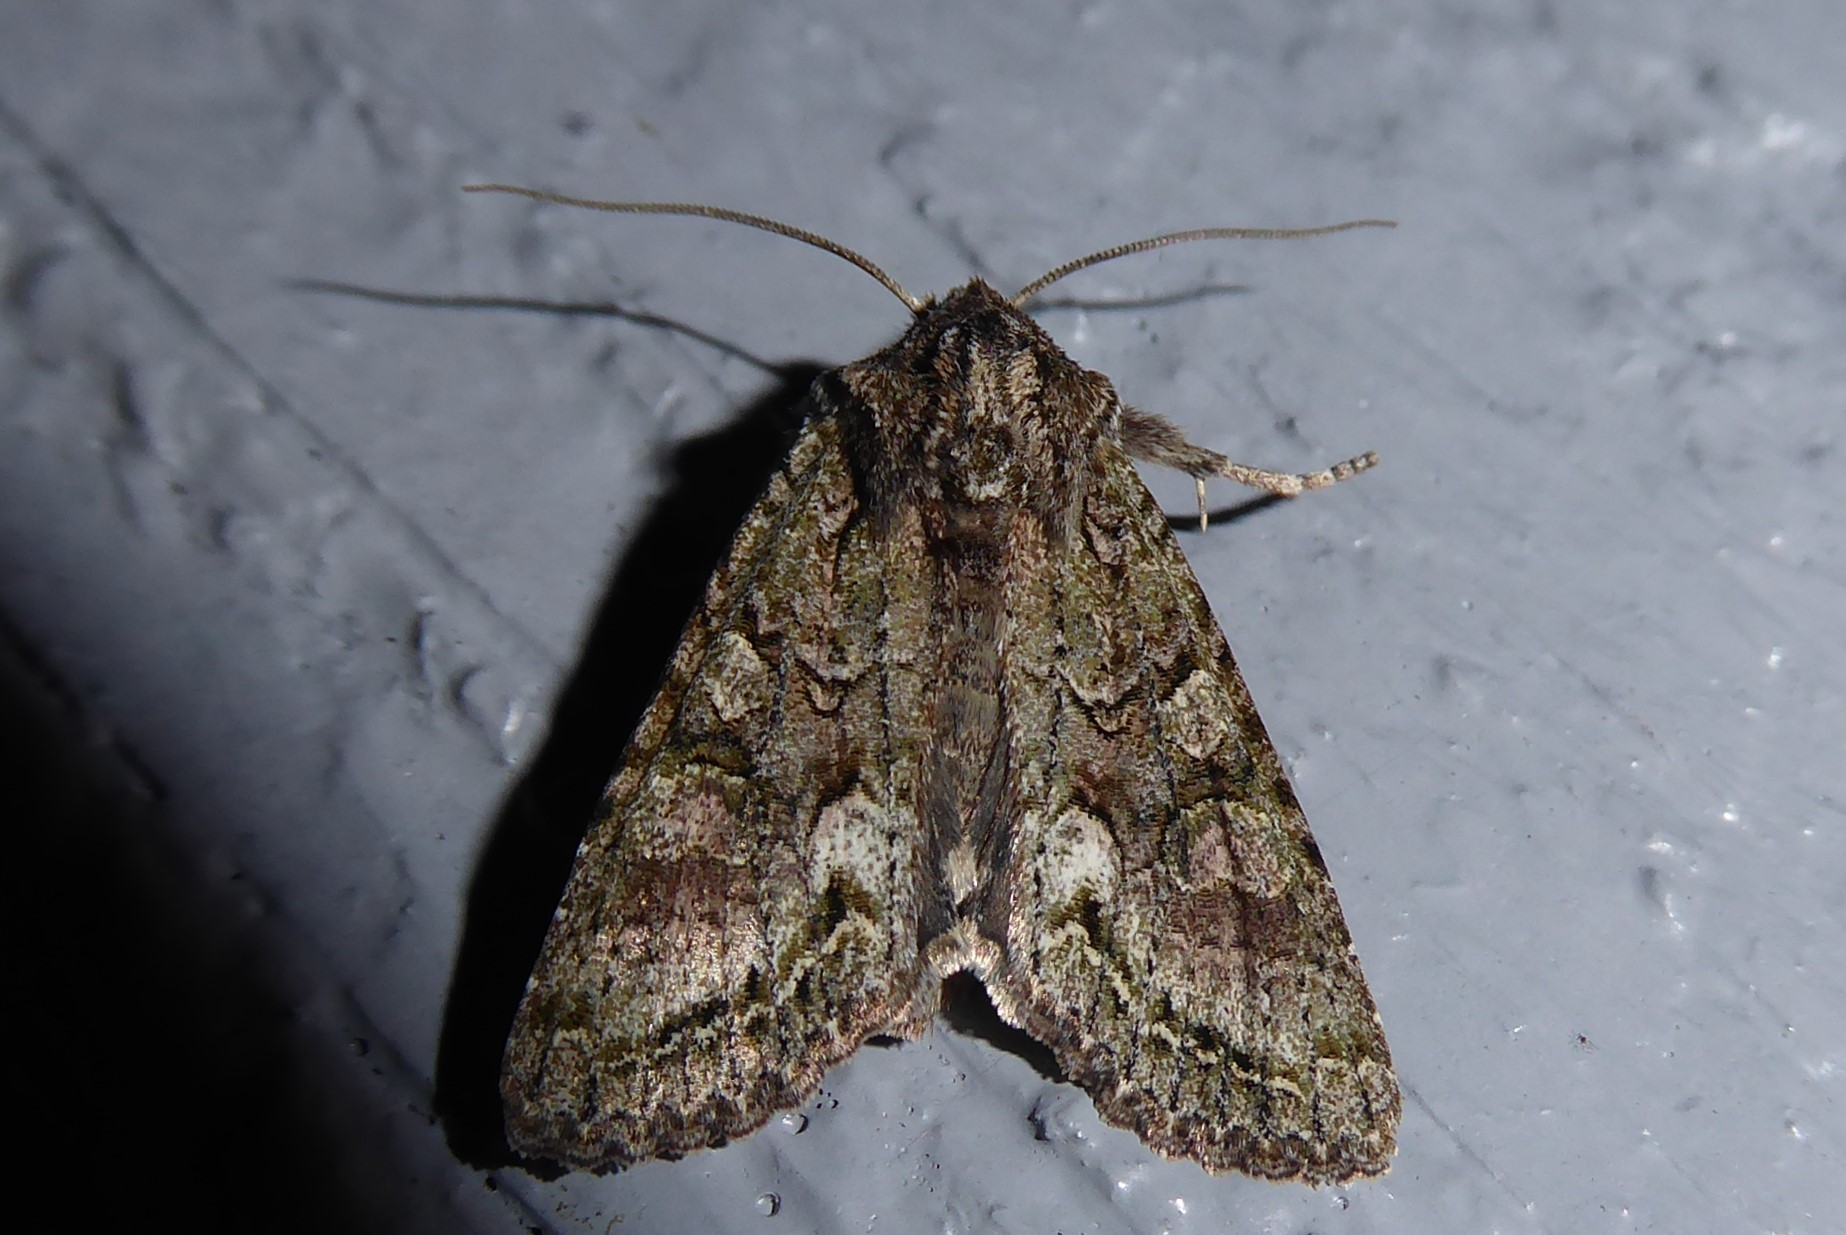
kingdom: Animalia
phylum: Arthropoda
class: Insecta
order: Lepidoptera
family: Noctuidae
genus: Ichneutica
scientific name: Ichneutica mutans
